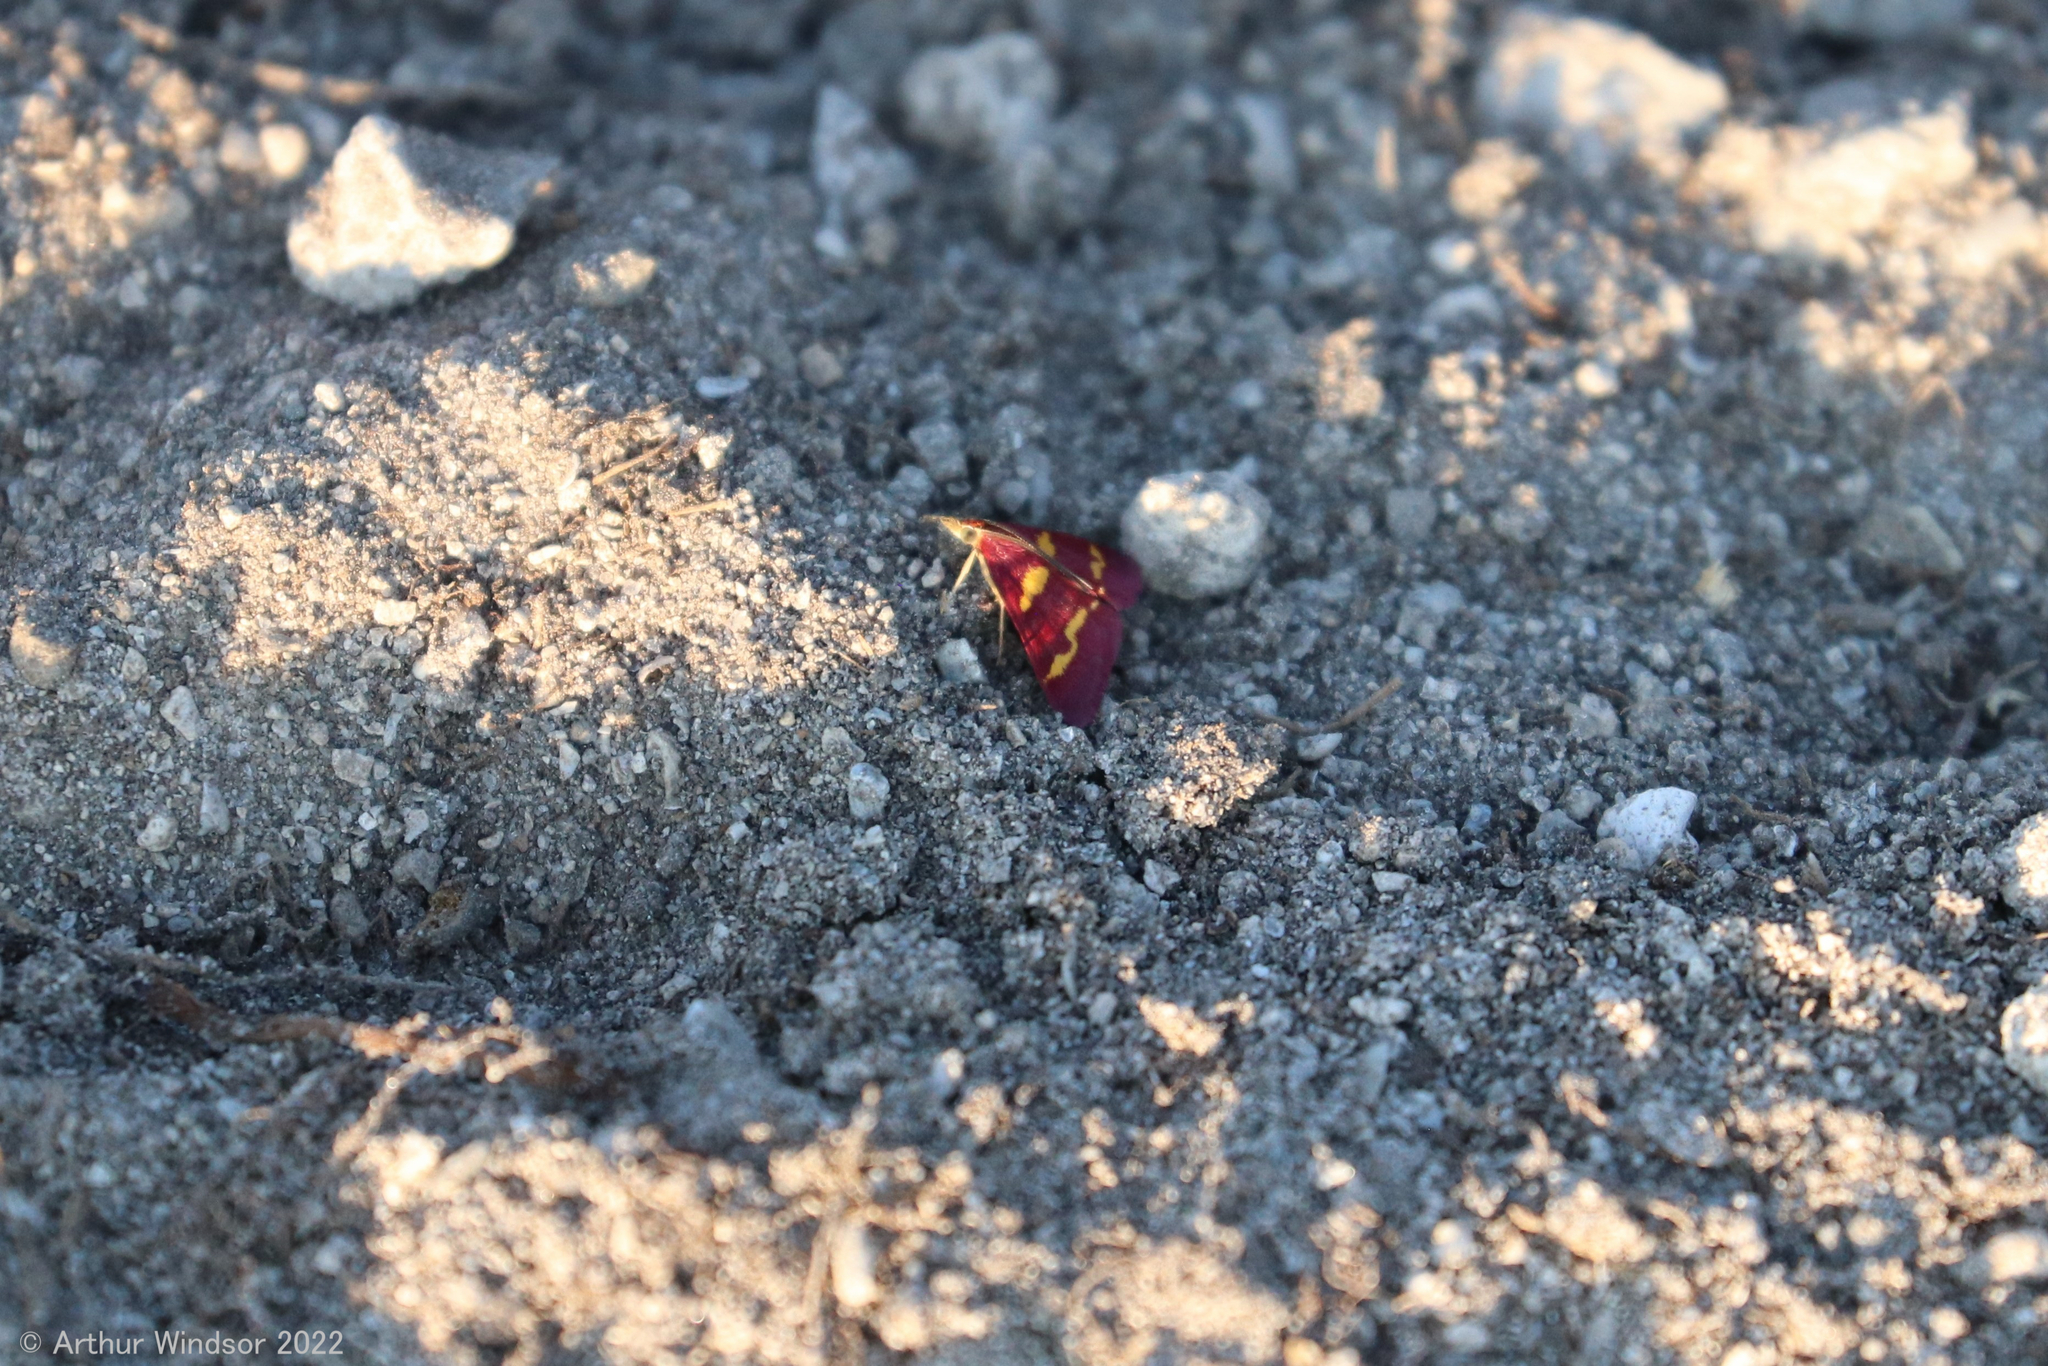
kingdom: Animalia
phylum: Arthropoda
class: Insecta
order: Lepidoptera
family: Crambidae
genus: Pyrausta
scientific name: Pyrausta tyralis
